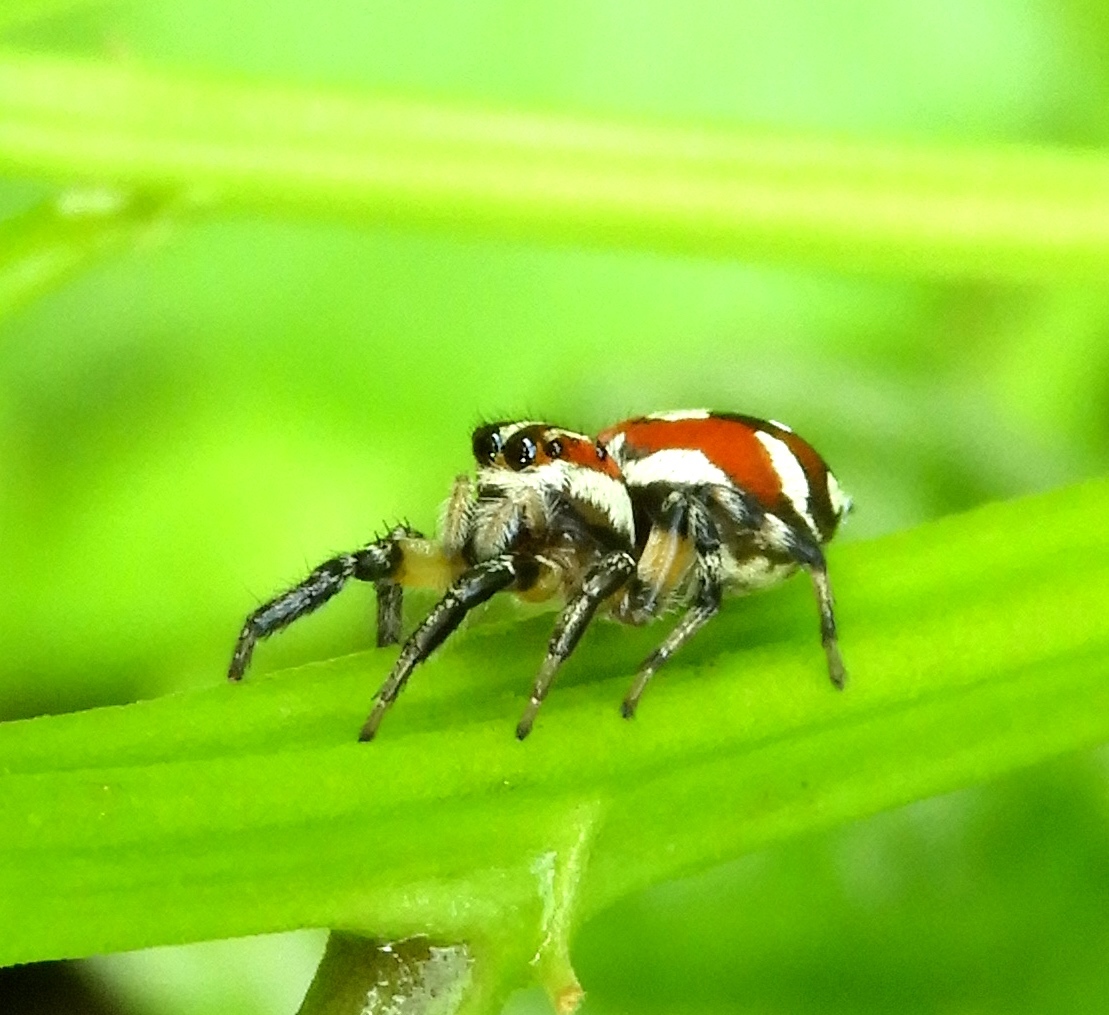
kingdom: Animalia
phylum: Arthropoda
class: Arachnida
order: Araneae
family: Salticidae
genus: Nycerella
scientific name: Nycerella delecta
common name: Jumping spiders
